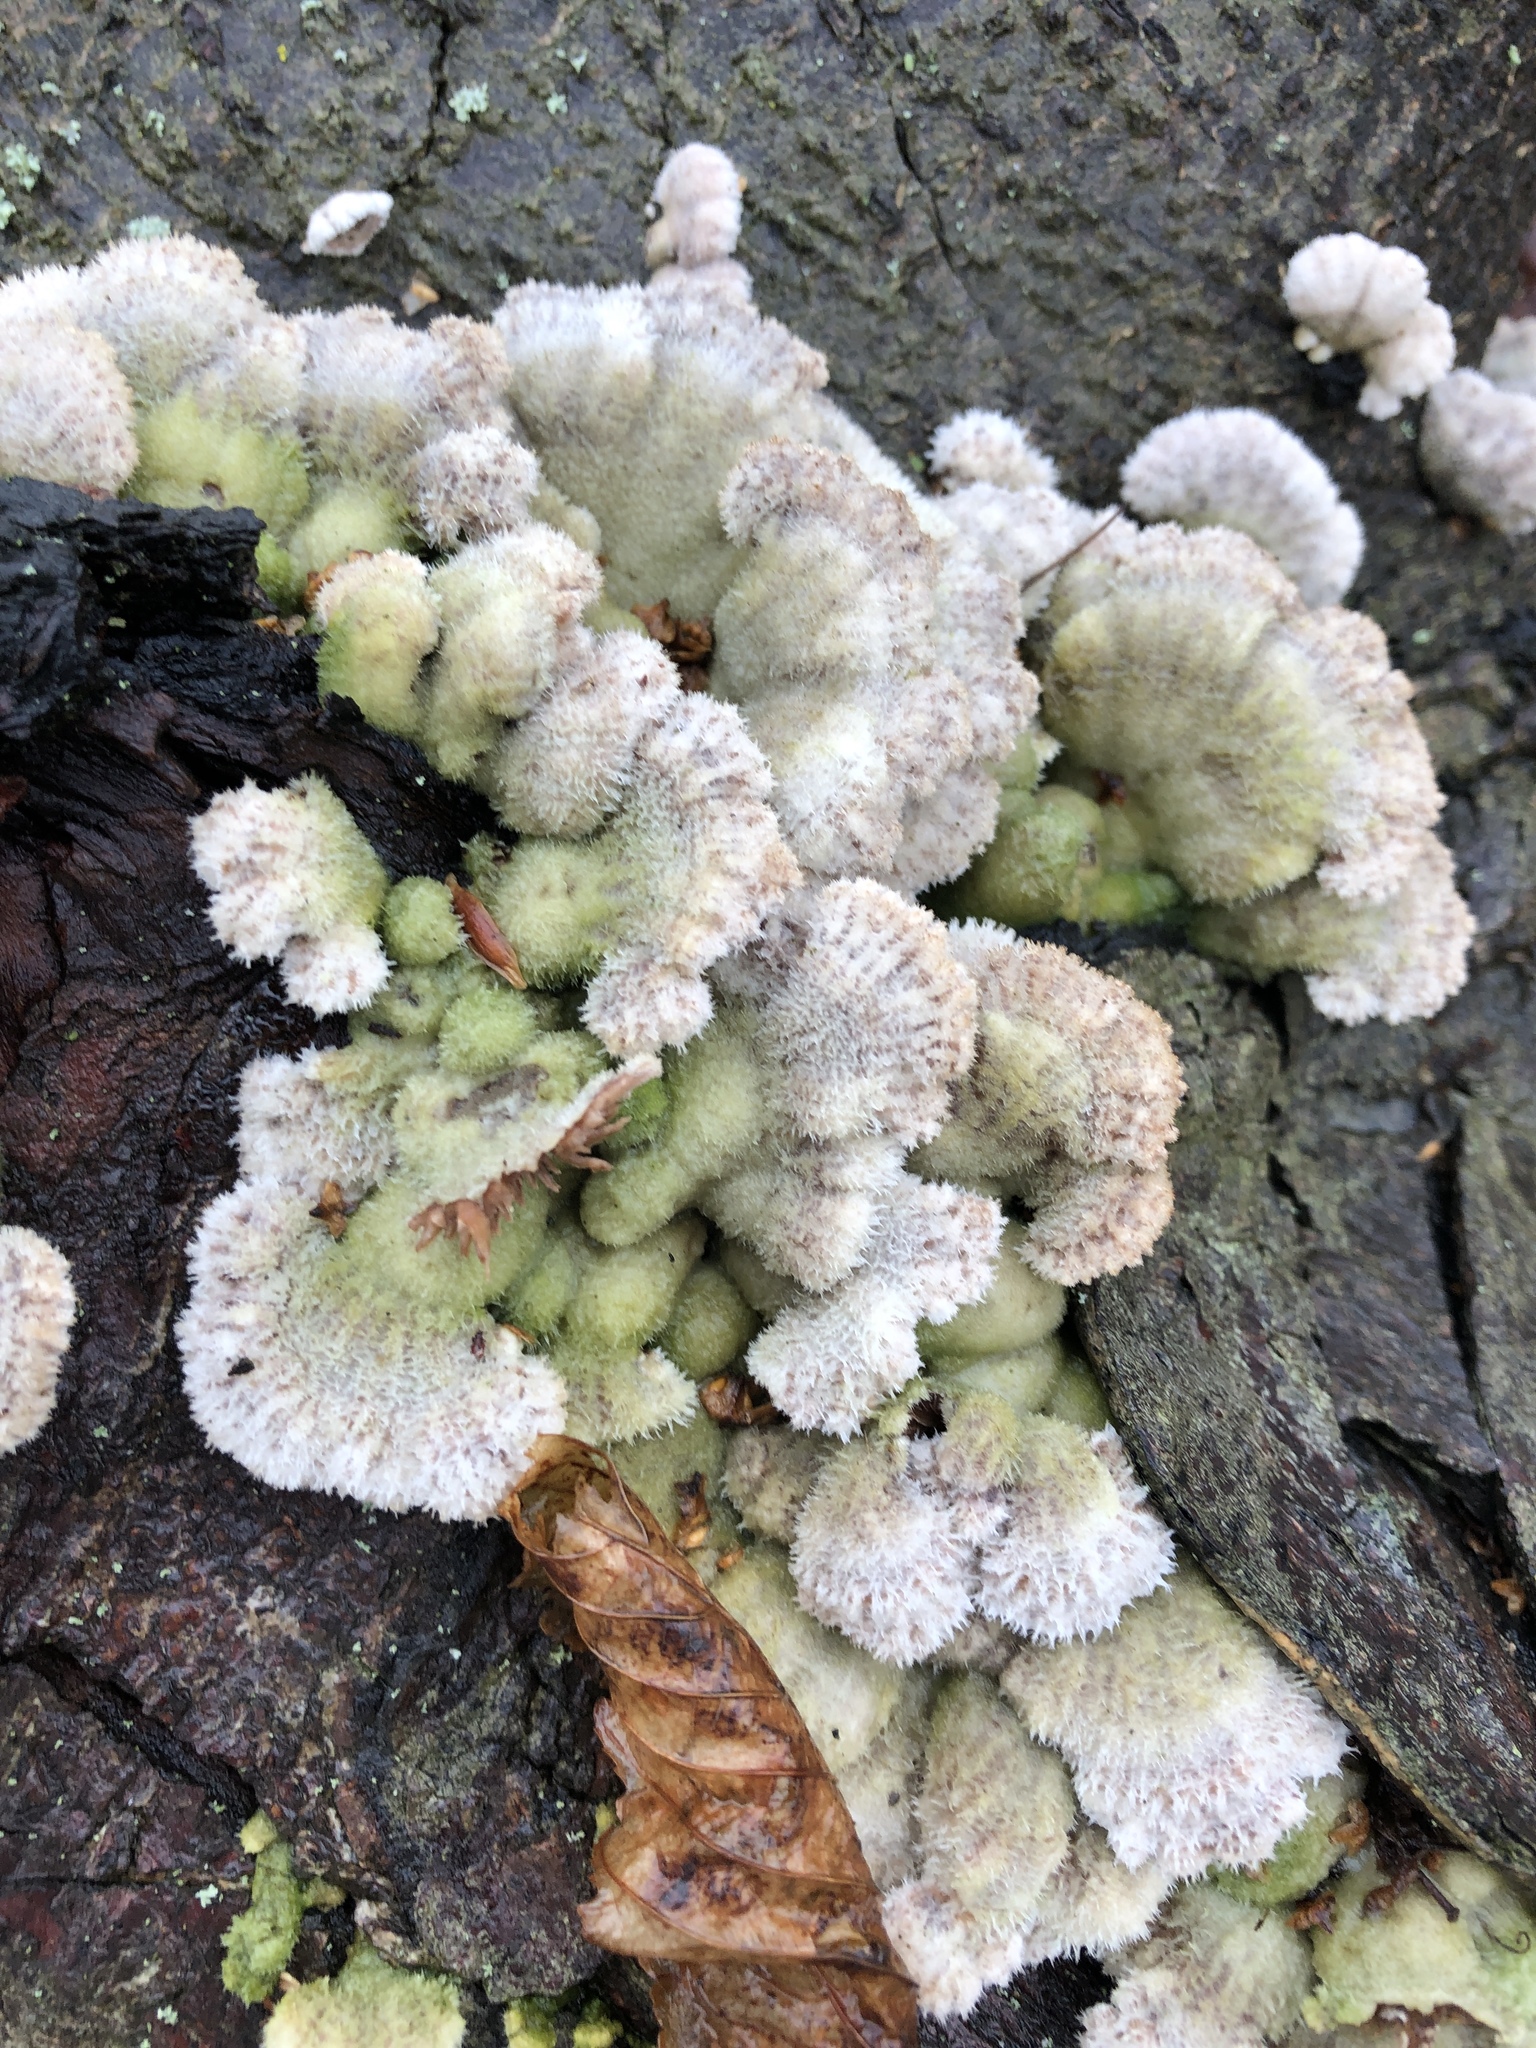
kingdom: Fungi
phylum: Basidiomycota
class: Agaricomycetes
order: Agaricales
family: Schizophyllaceae
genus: Schizophyllum
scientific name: Schizophyllum commune
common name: Common porecrust
